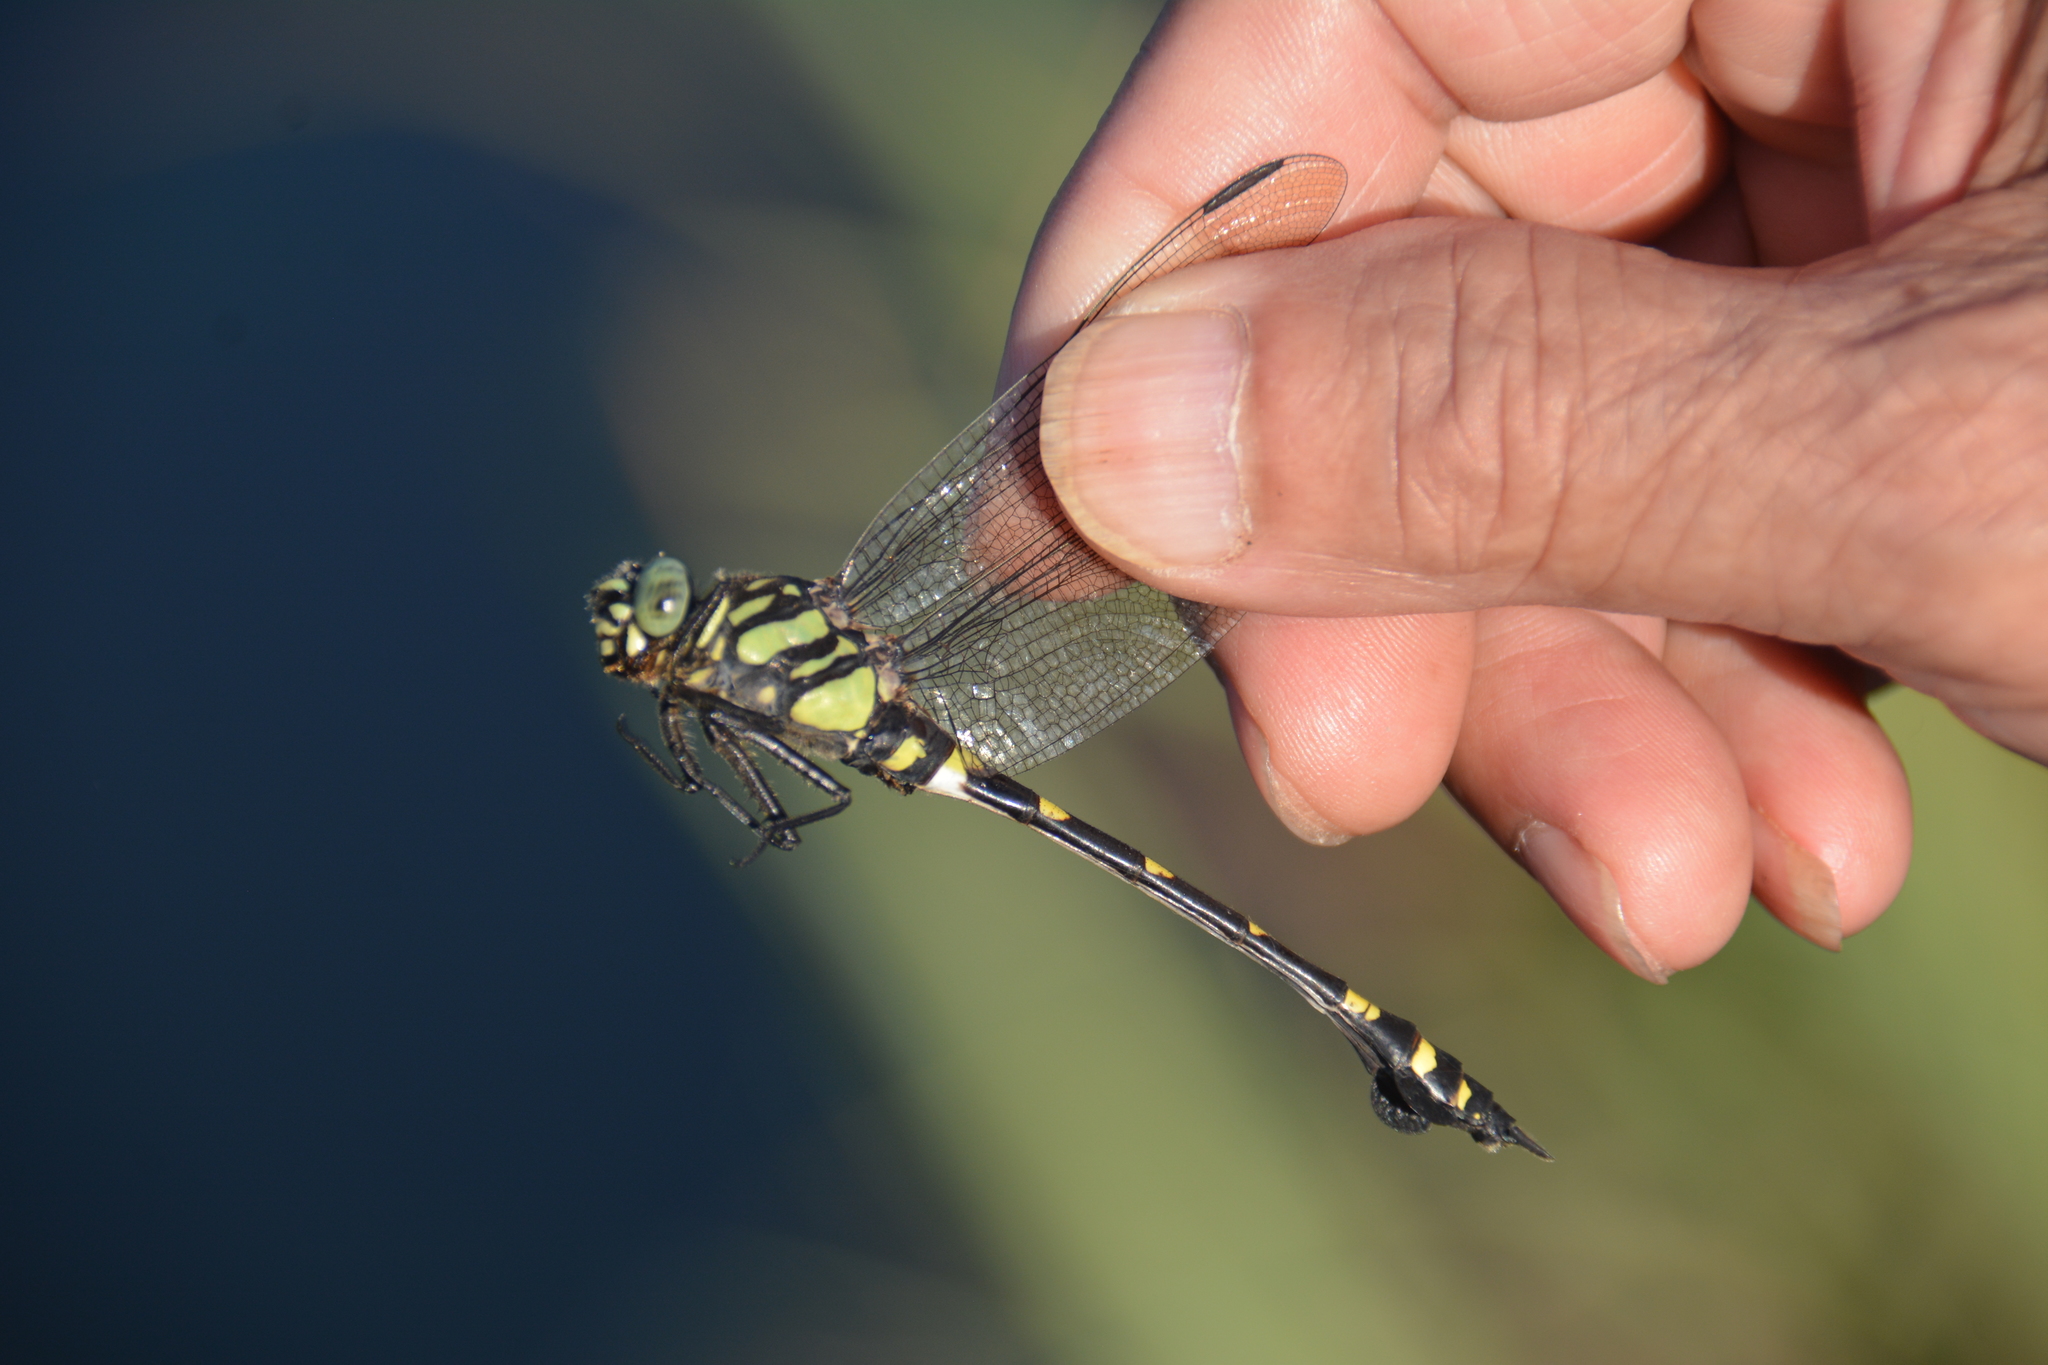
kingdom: Animalia
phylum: Arthropoda
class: Insecta
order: Odonata
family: Gomphidae
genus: Ictinogomphus
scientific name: Ictinogomphus rapax
